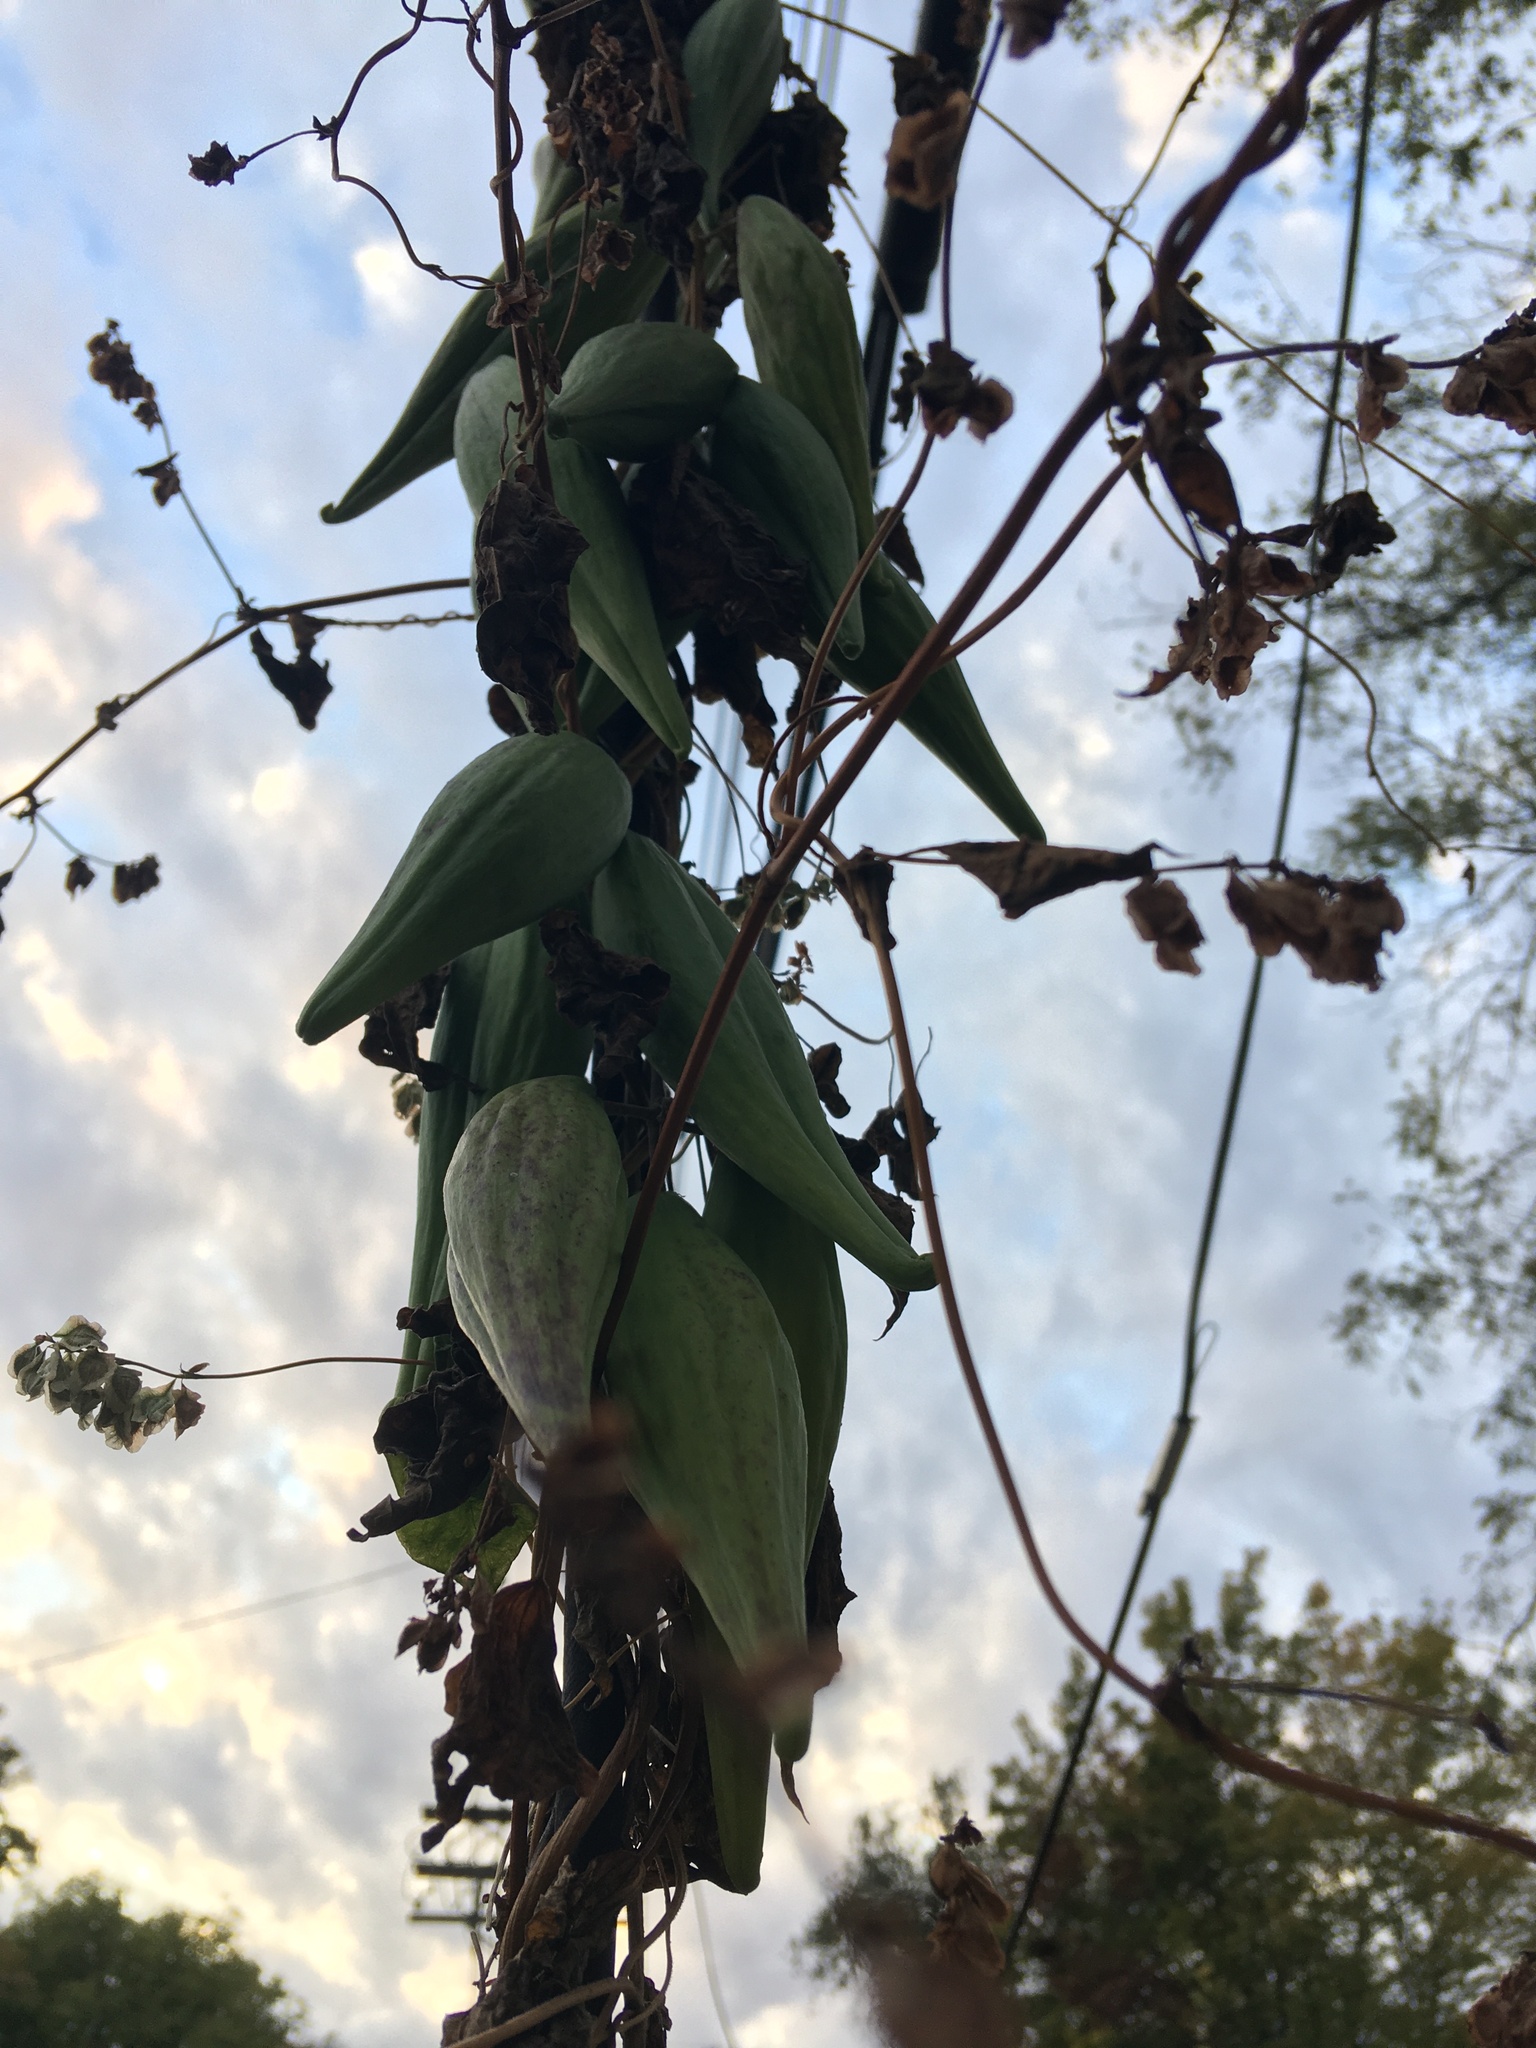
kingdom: Plantae
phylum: Tracheophyta
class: Magnoliopsida
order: Gentianales
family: Apocynaceae
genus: Cynanchum
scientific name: Cynanchum laeve
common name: Sandvine
